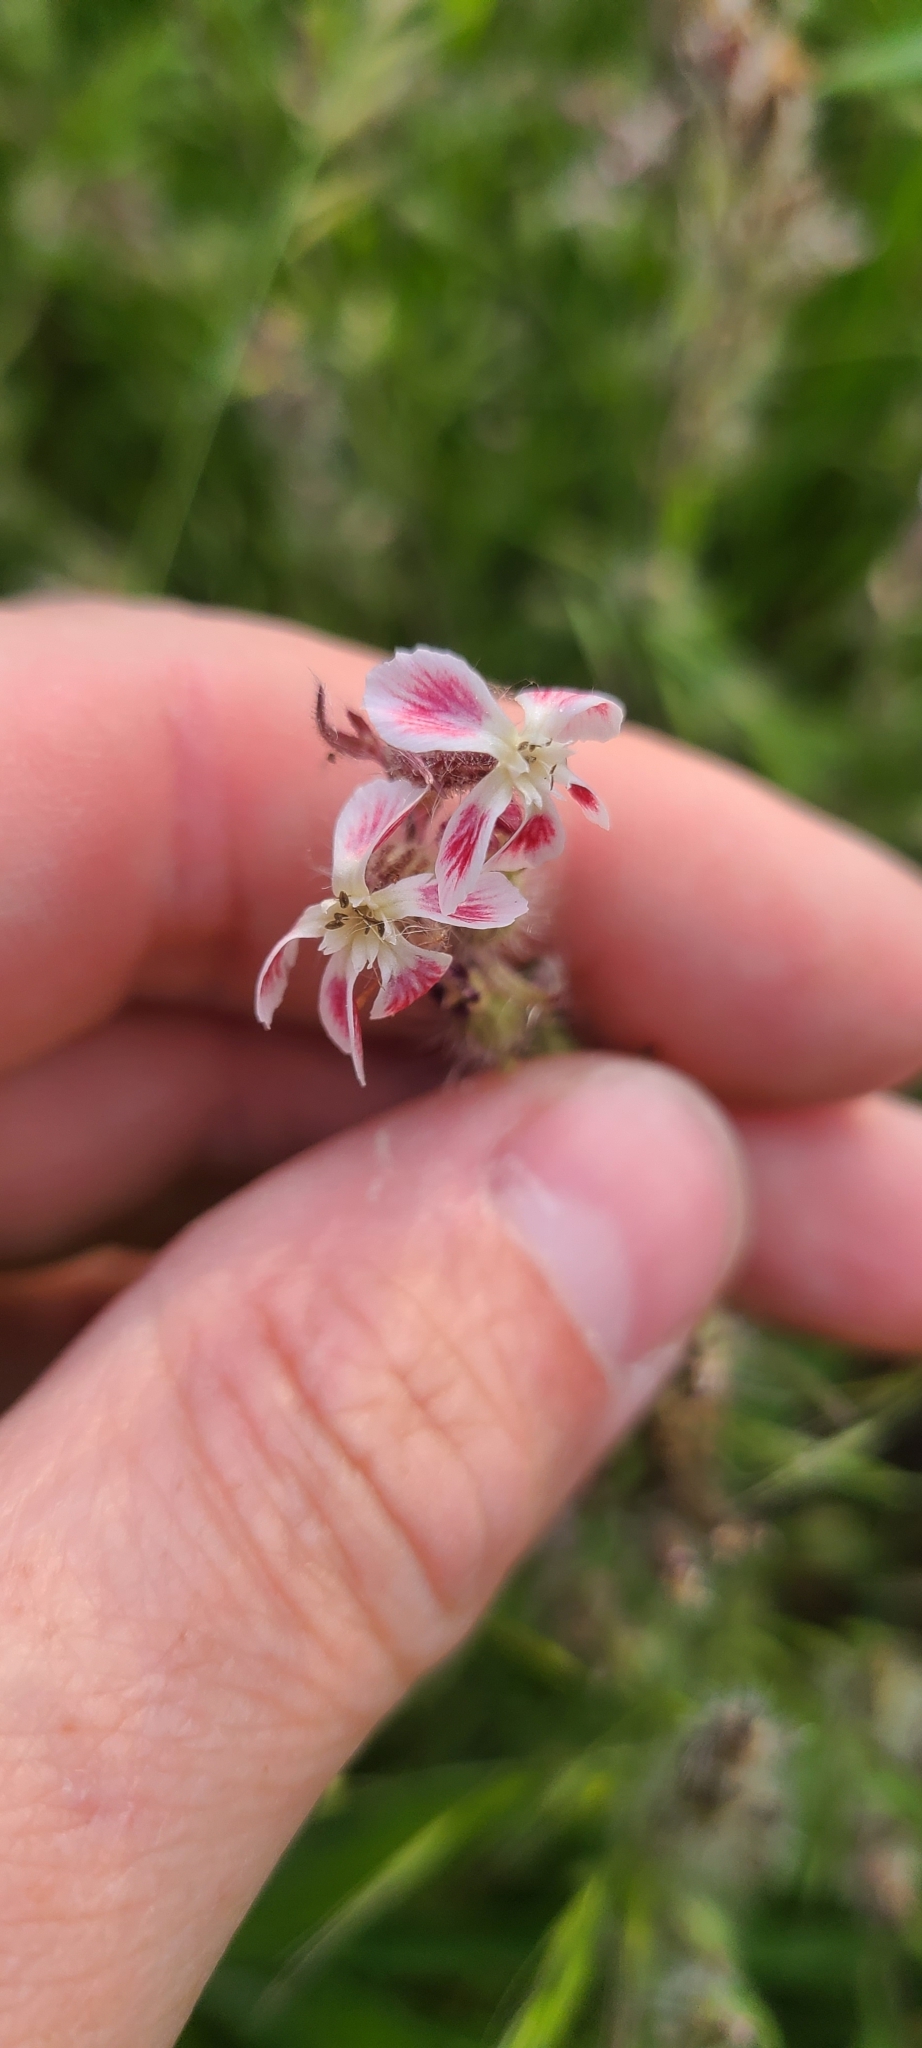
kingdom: Plantae
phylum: Tracheophyta
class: Magnoliopsida
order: Caryophyllales
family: Caryophyllaceae
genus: Silene
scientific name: Silene gallica
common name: Small-flowered catchfly
